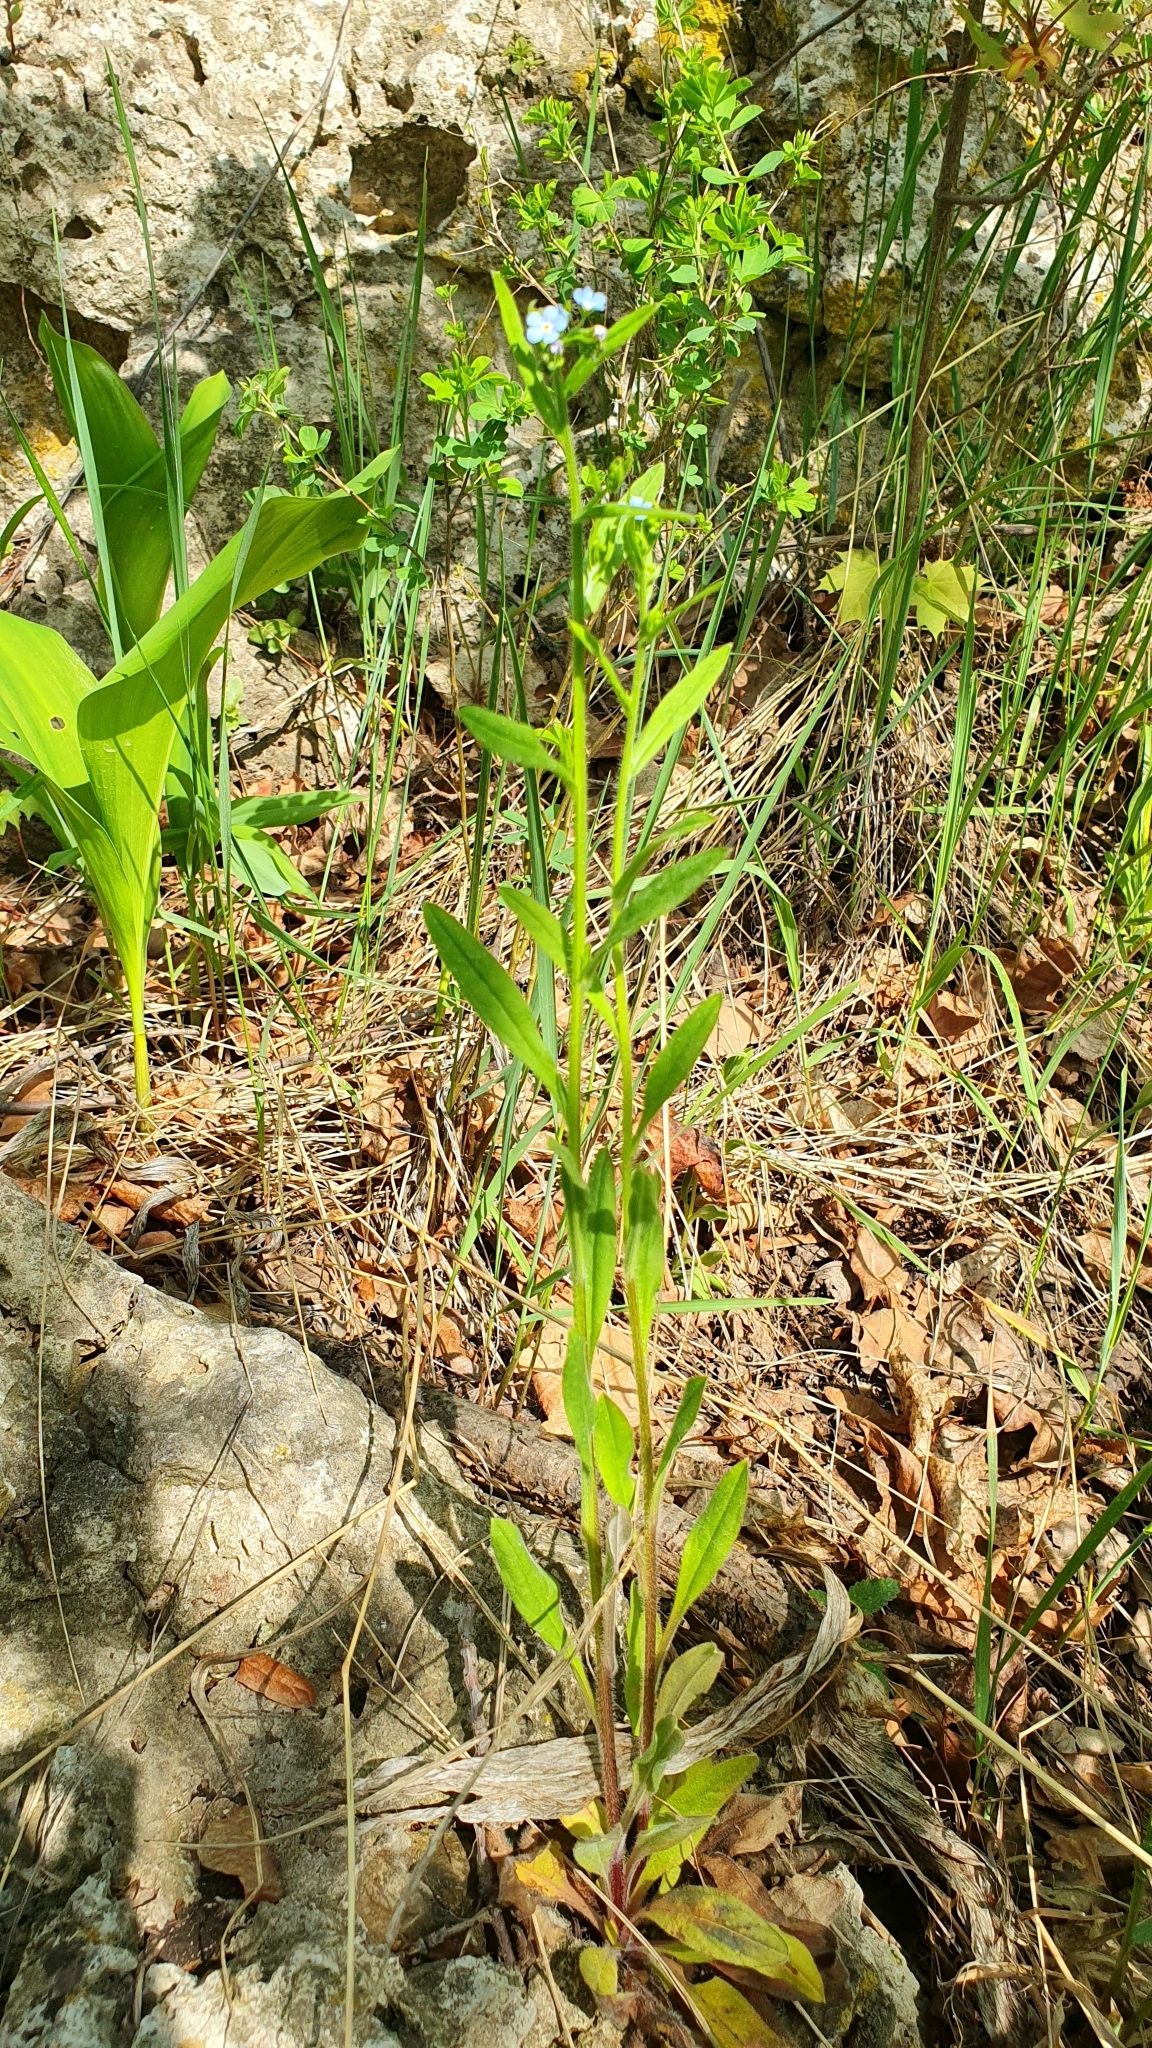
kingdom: Plantae
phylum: Tracheophyta
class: Magnoliopsida
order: Boraginales
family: Boraginaceae
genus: Hackelia
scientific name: Hackelia deflexa
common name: Nodding stickseed
